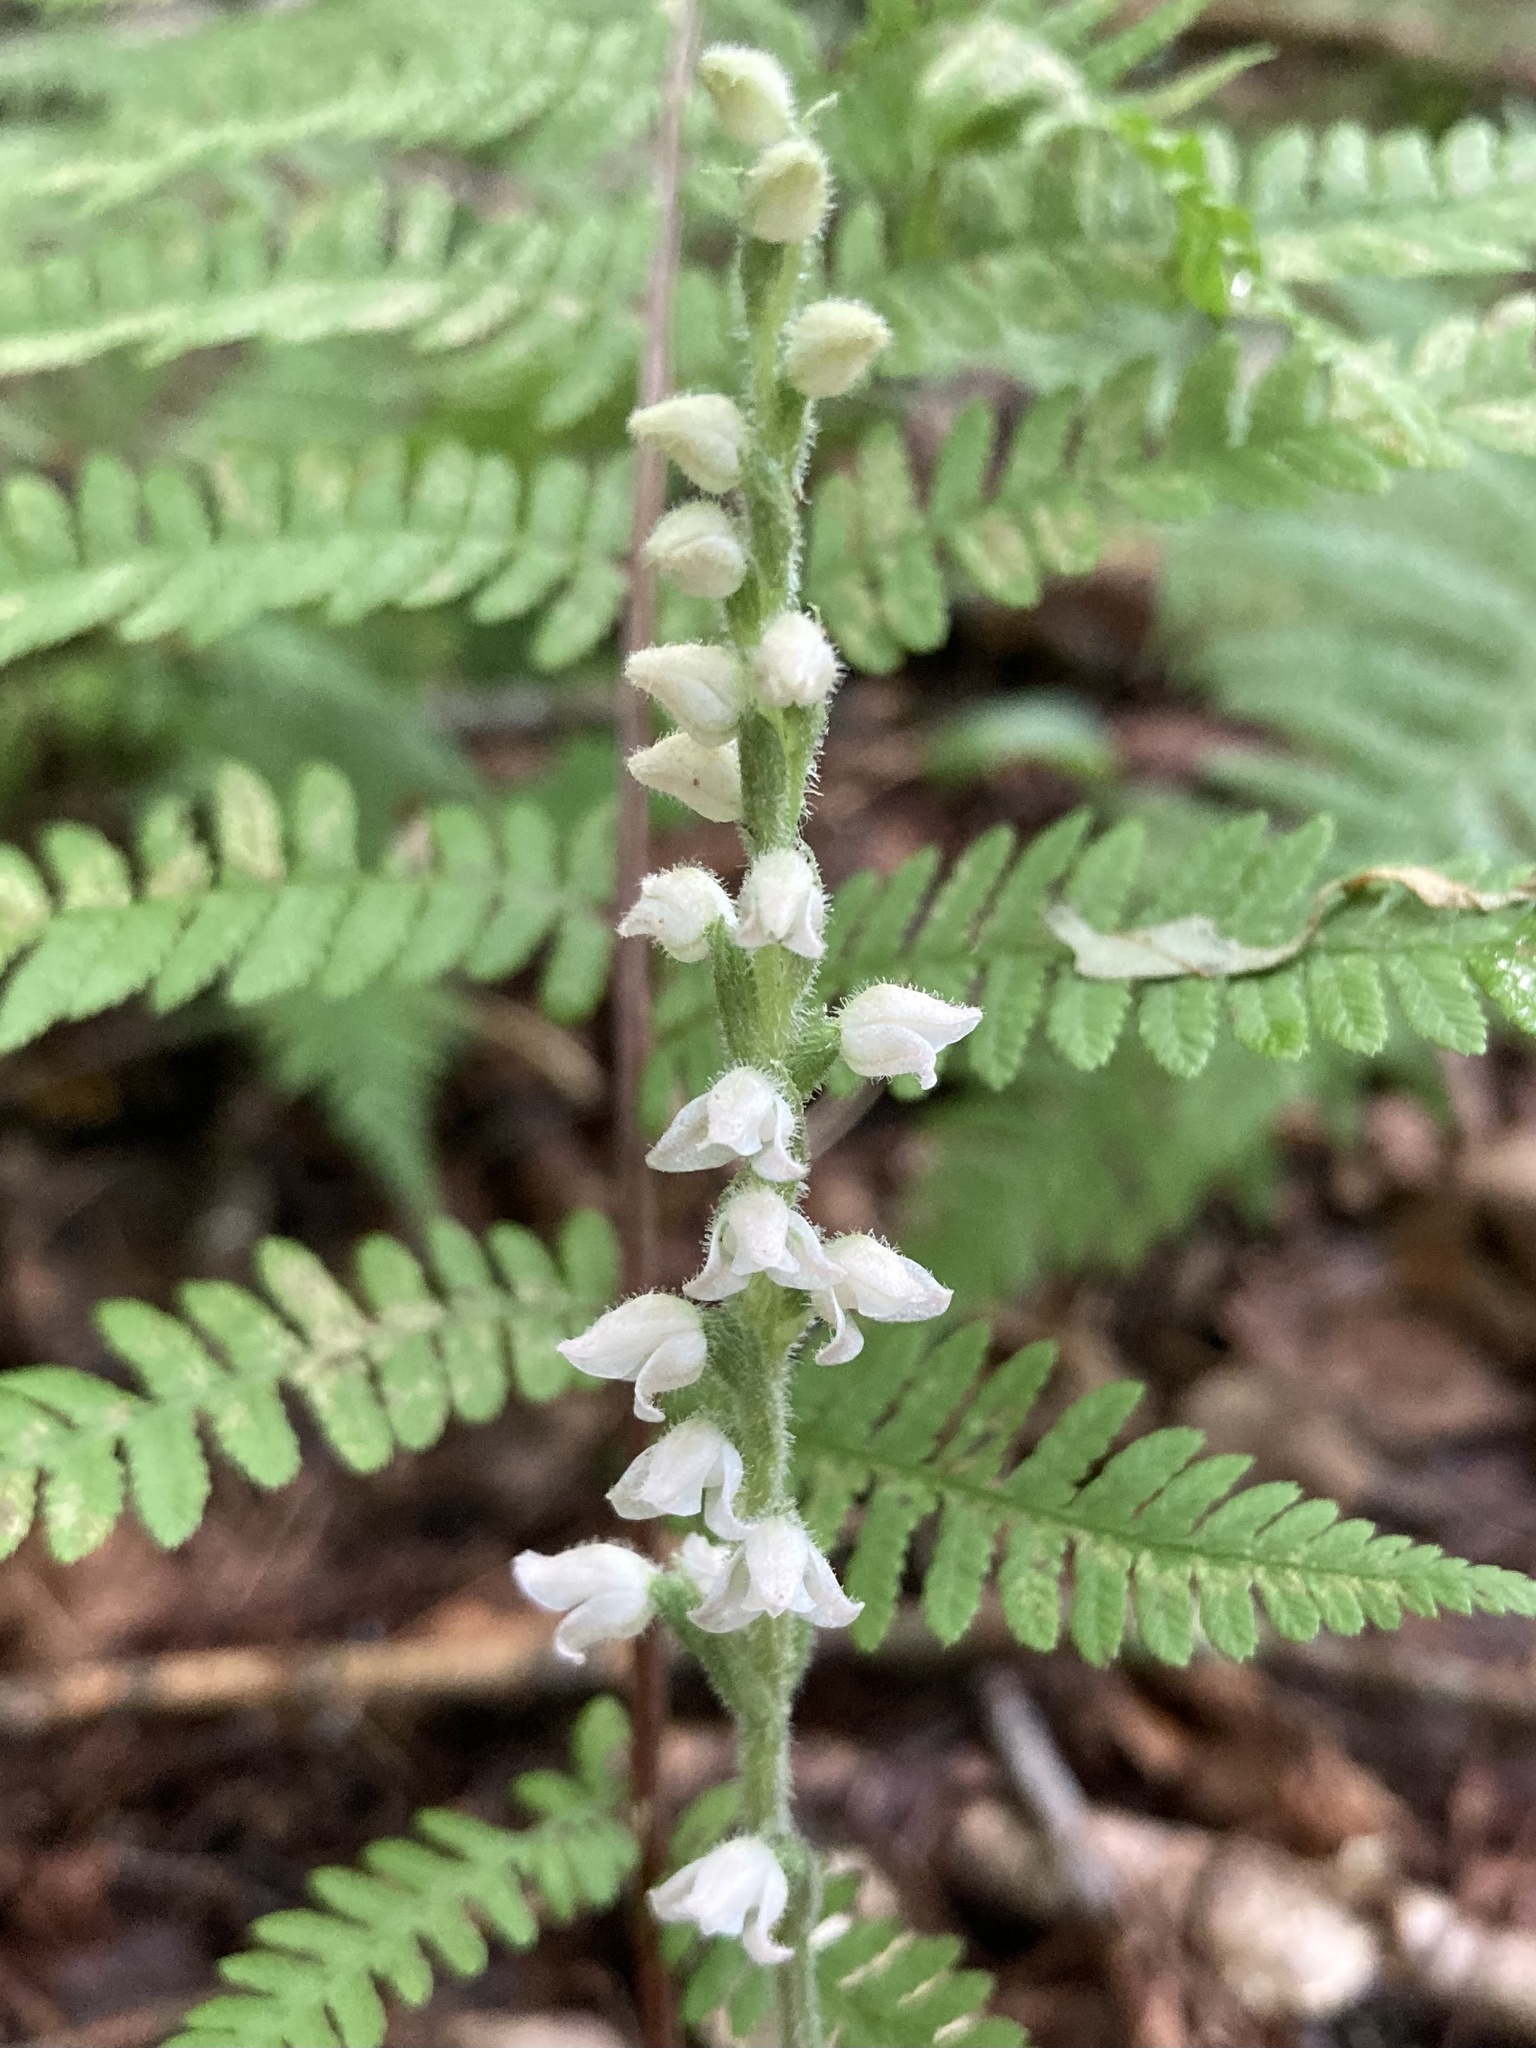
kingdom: Plantae
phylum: Tracheophyta
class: Liliopsida
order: Asparagales
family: Orchidaceae
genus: Goodyera
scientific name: Goodyera tesselata
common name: Checkered rattlesnake-plantain
